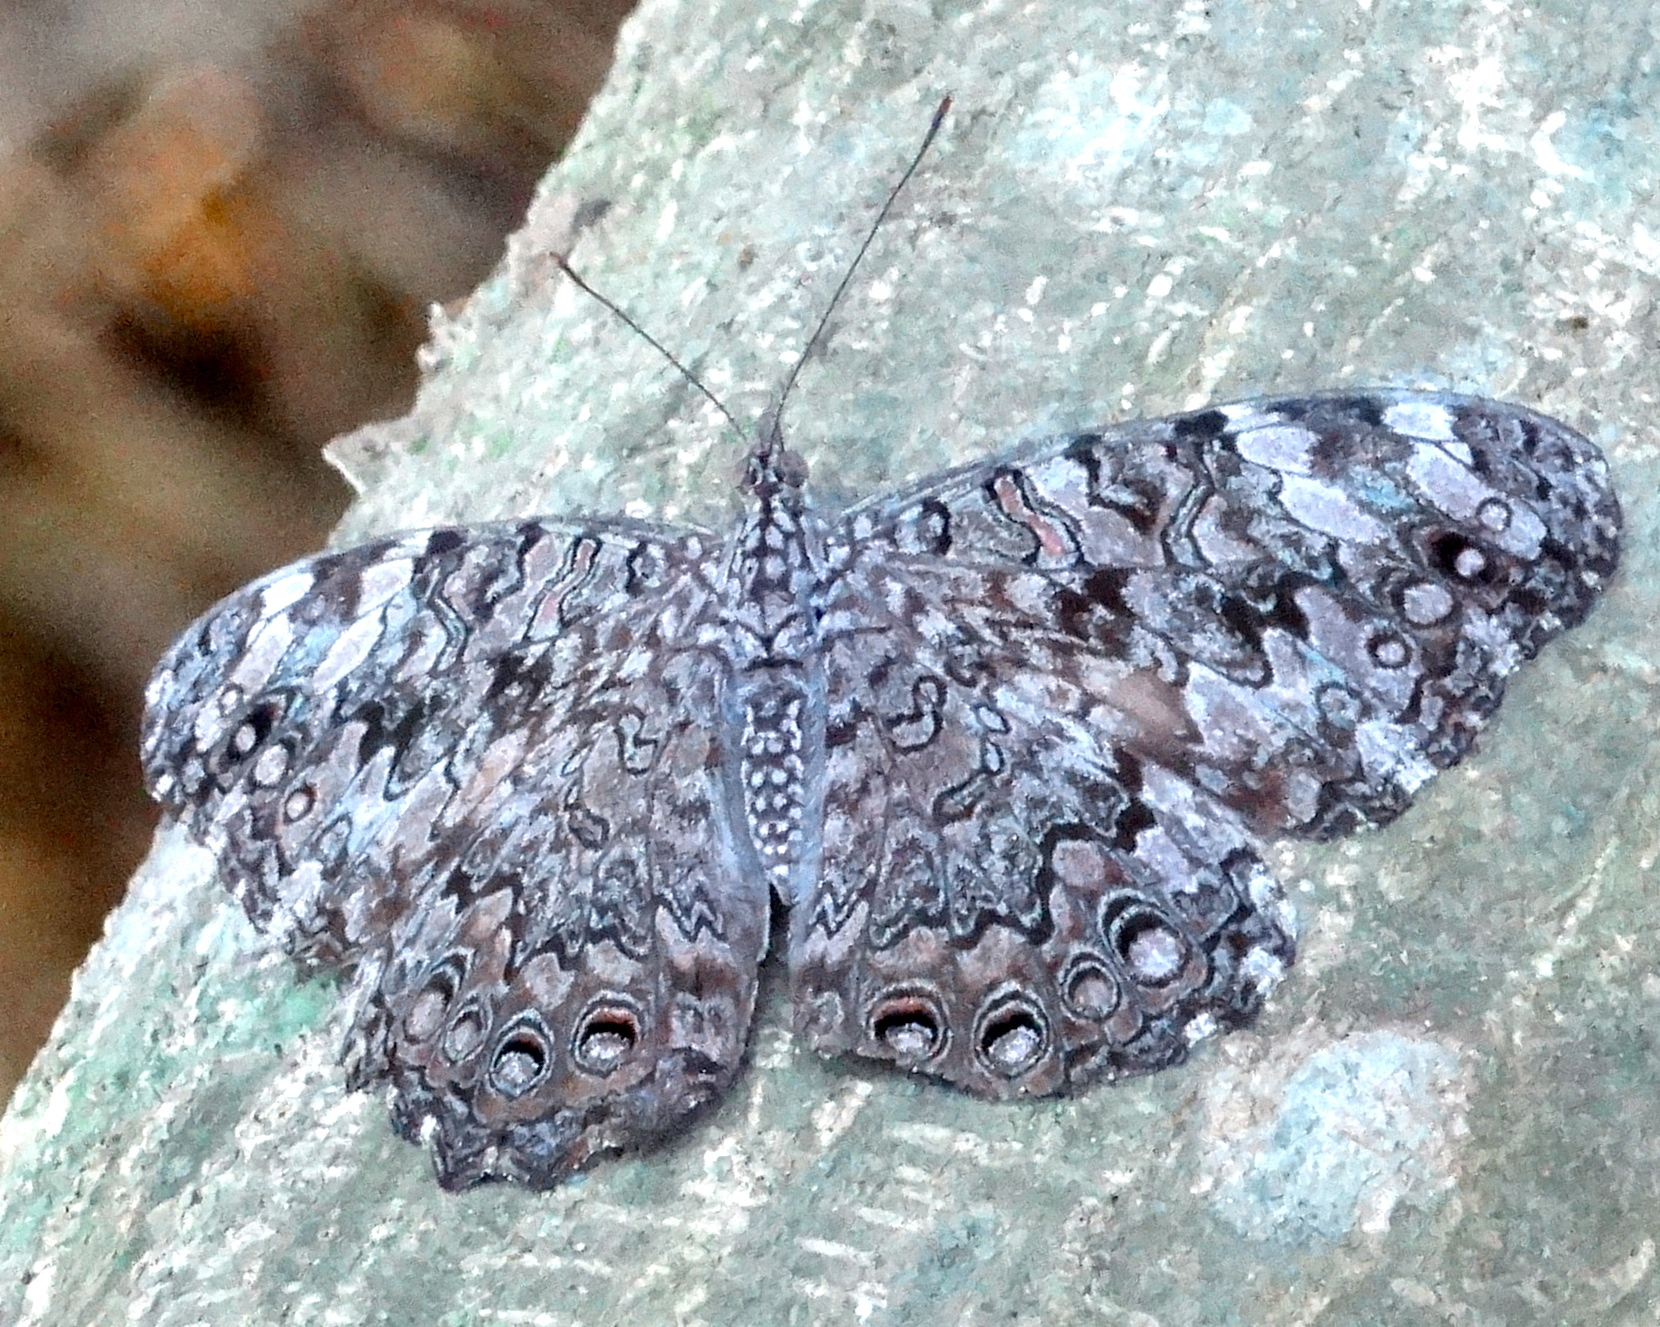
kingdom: Animalia
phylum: Arthropoda
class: Insecta
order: Lepidoptera
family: Nymphalidae
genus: Hamadryas
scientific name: Hamadryas februa
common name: Gray cracker
